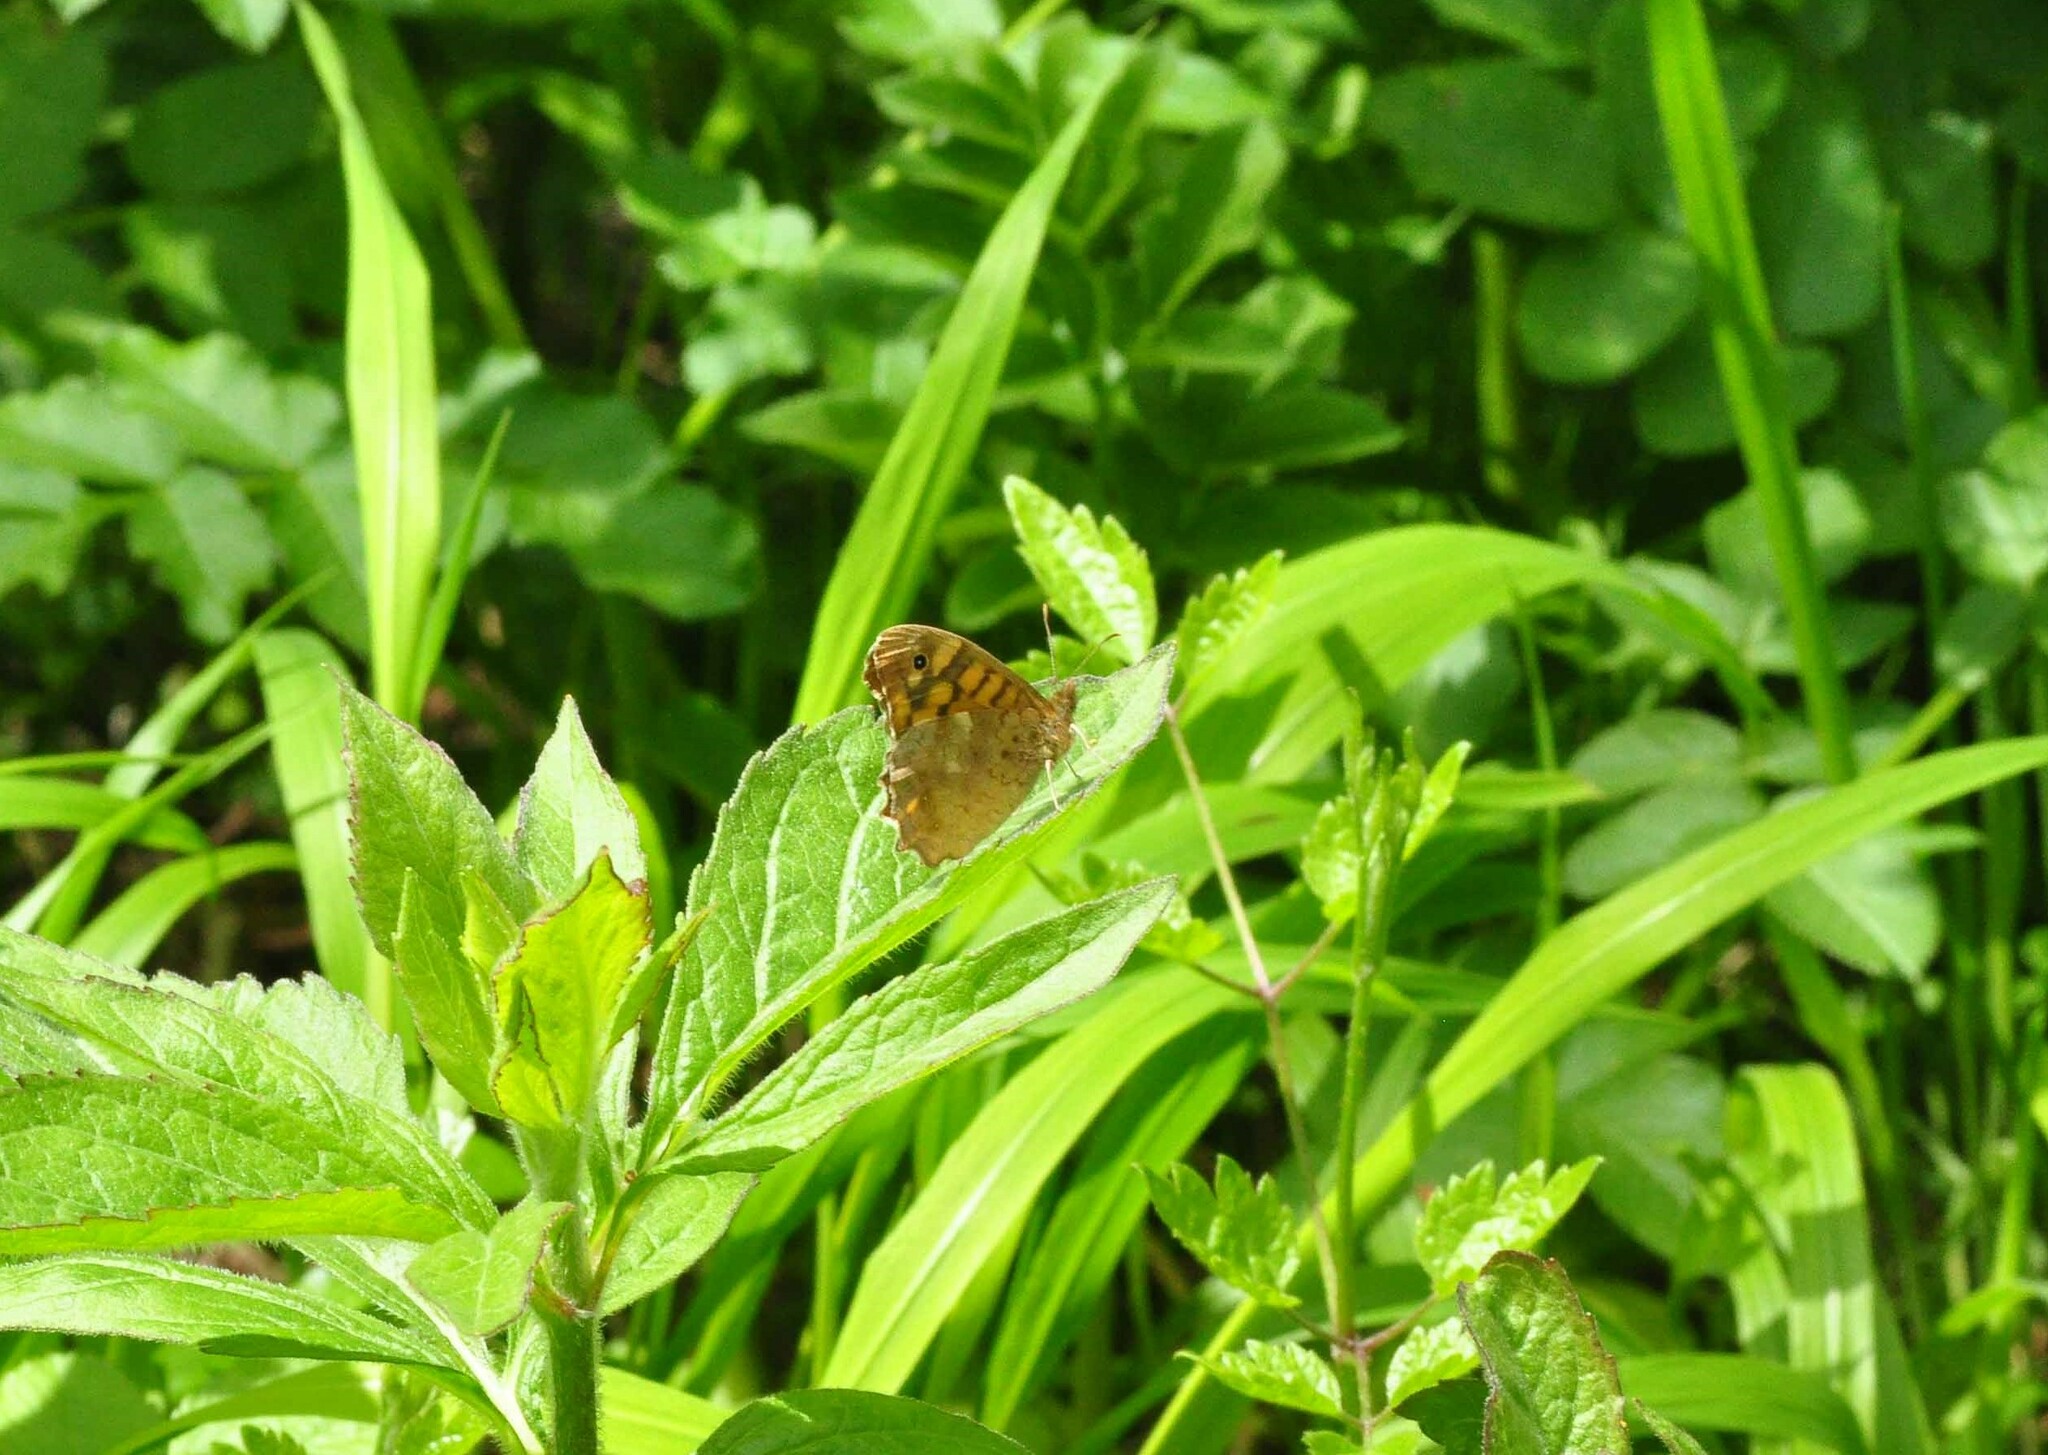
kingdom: Animalia
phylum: Arthropoda
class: Insecta
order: Lepidoptera
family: Nymphalidae
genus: Pararge
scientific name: Pararge aegeria
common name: Speckled wood
